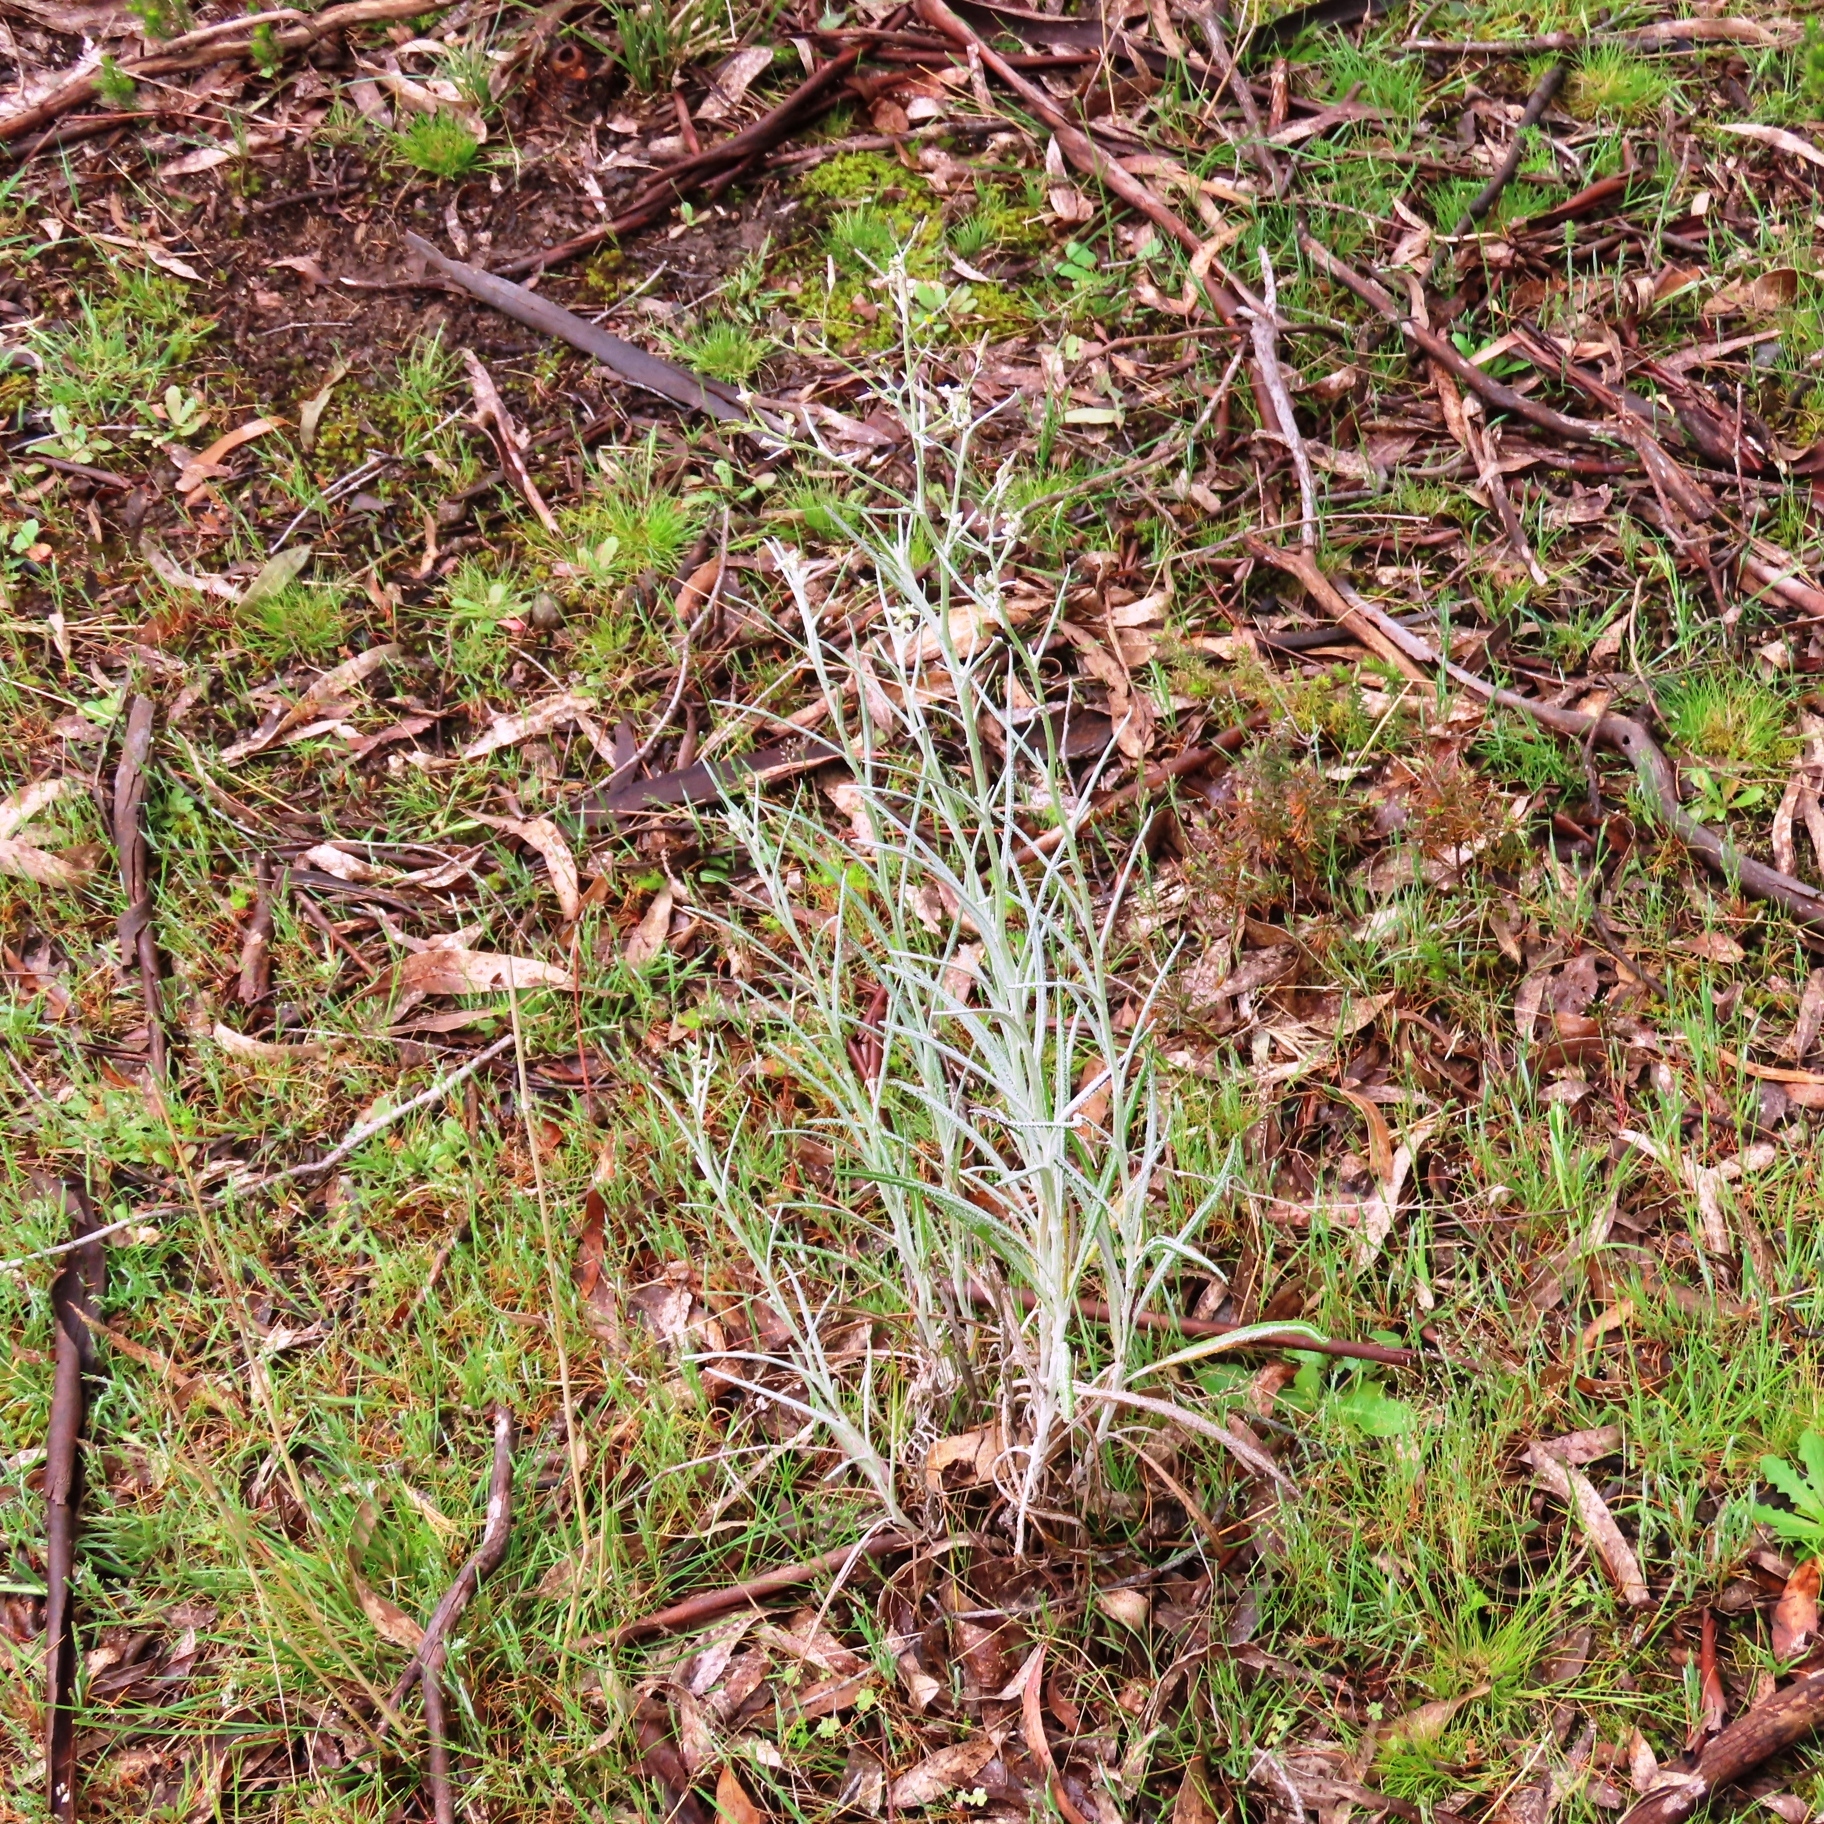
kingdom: Plantae
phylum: Tracheophyta
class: Magnoliopsida
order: Asterales
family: Asteraceae
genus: Senecio
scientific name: Senecio quadridentatus
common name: Cotton fireweed
